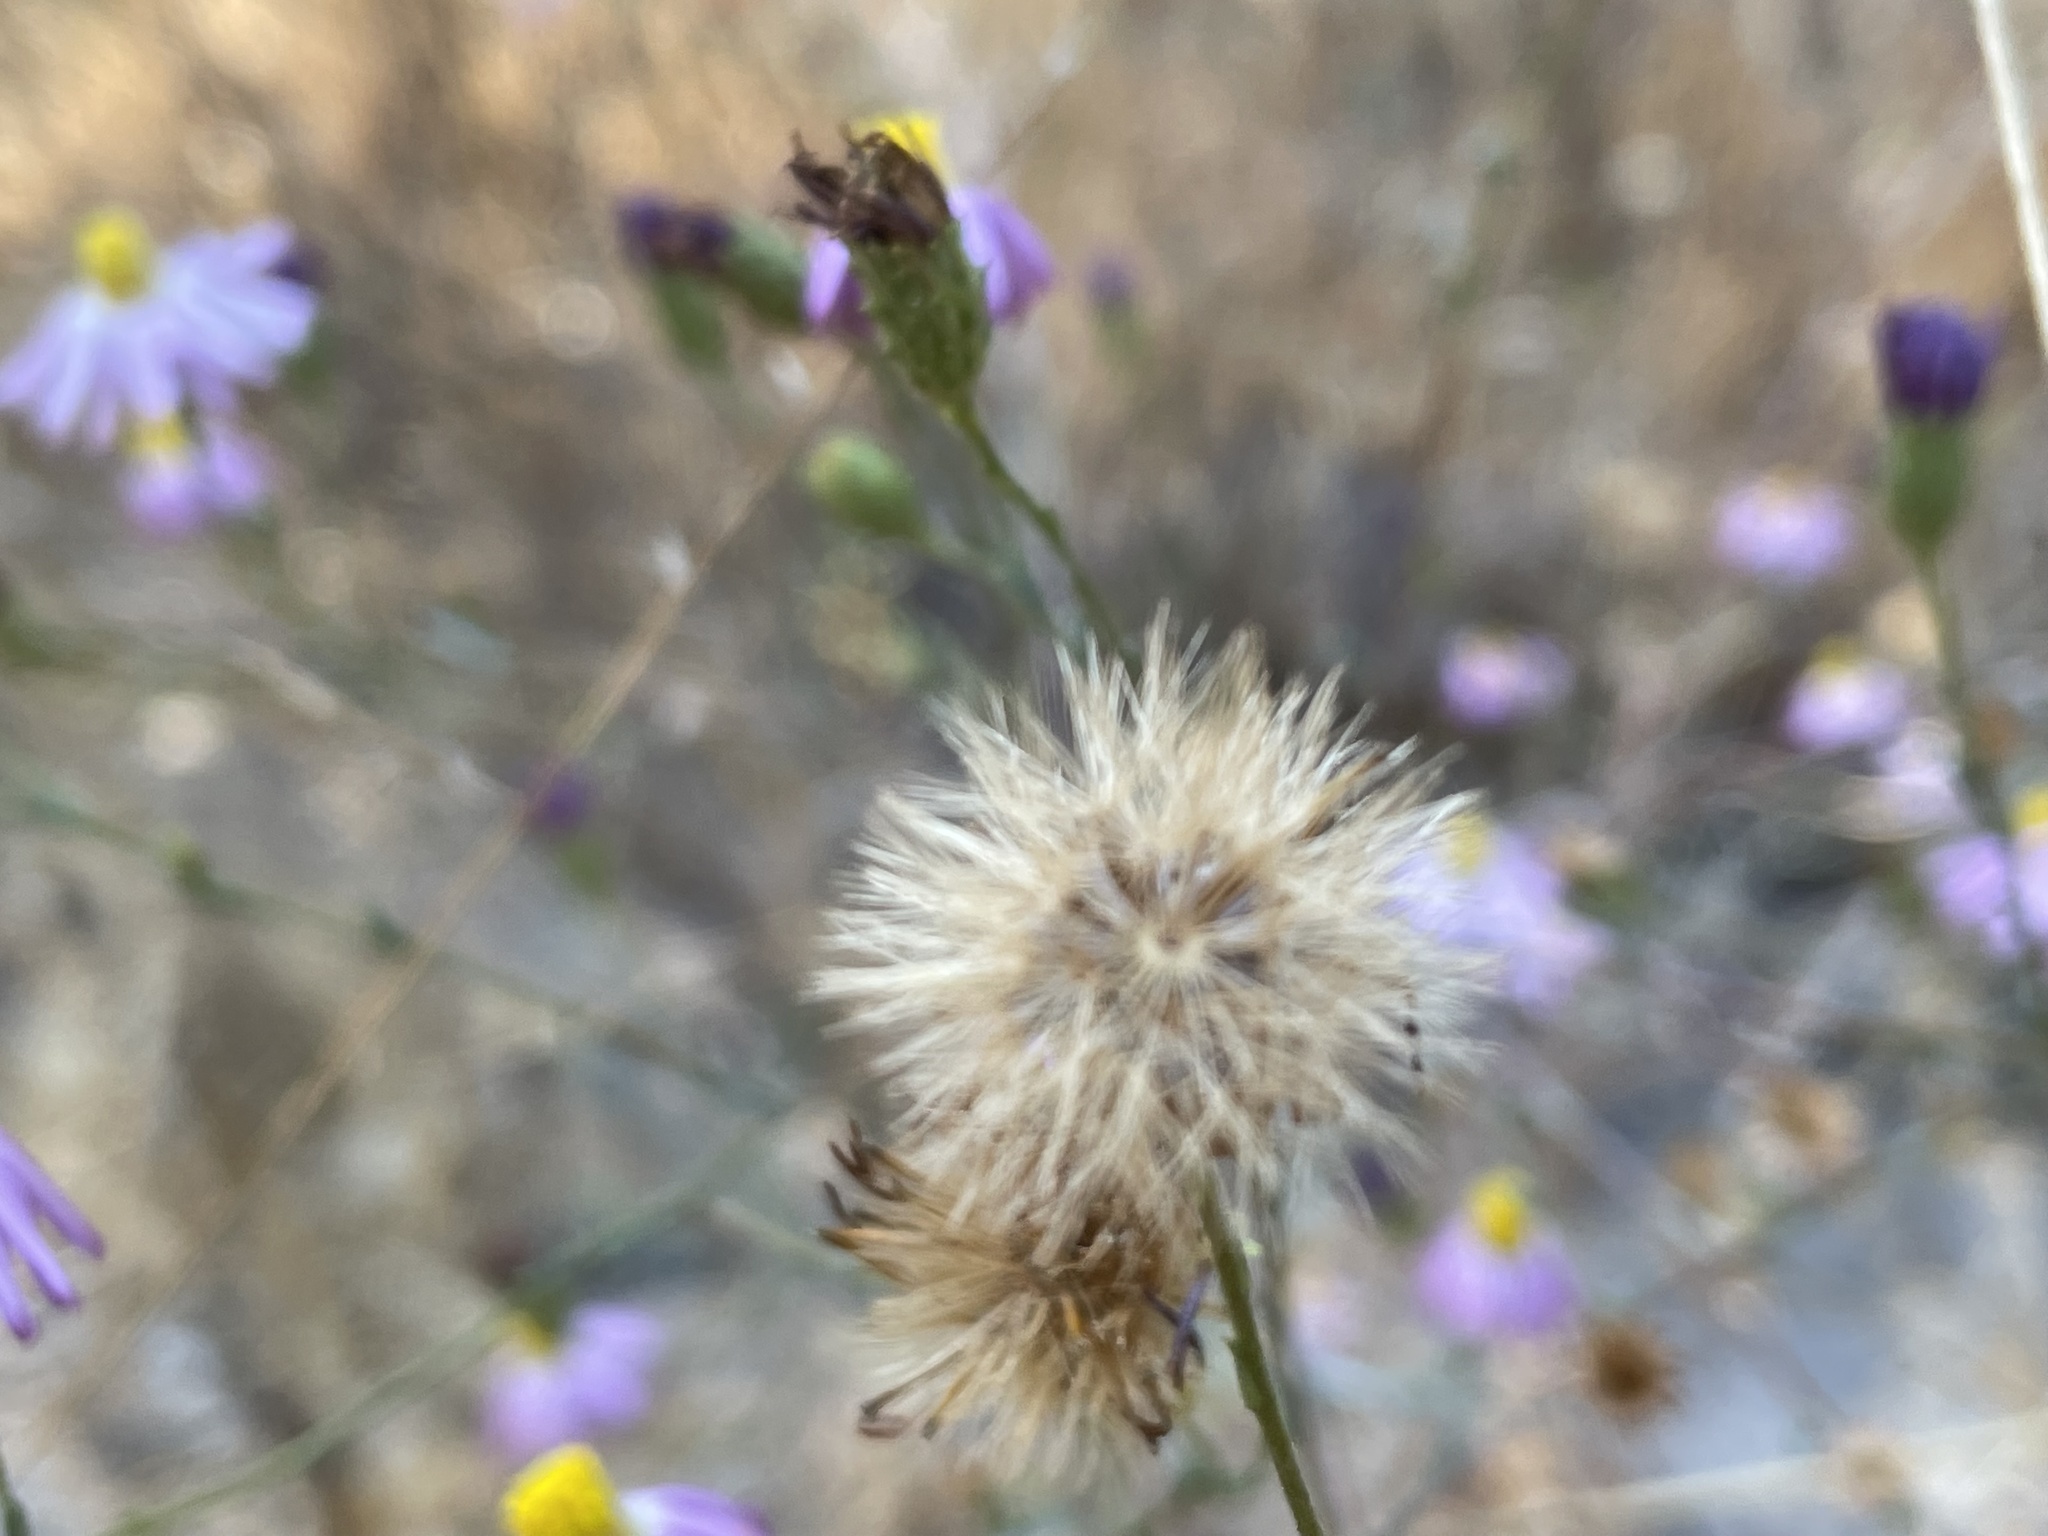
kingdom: Plantae
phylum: Tracheophyta
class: Magnoliopsida
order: Asterales
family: Asteraceae
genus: Corethrogyne
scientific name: Corethrogyne filaginifolia
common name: Sand-aster
